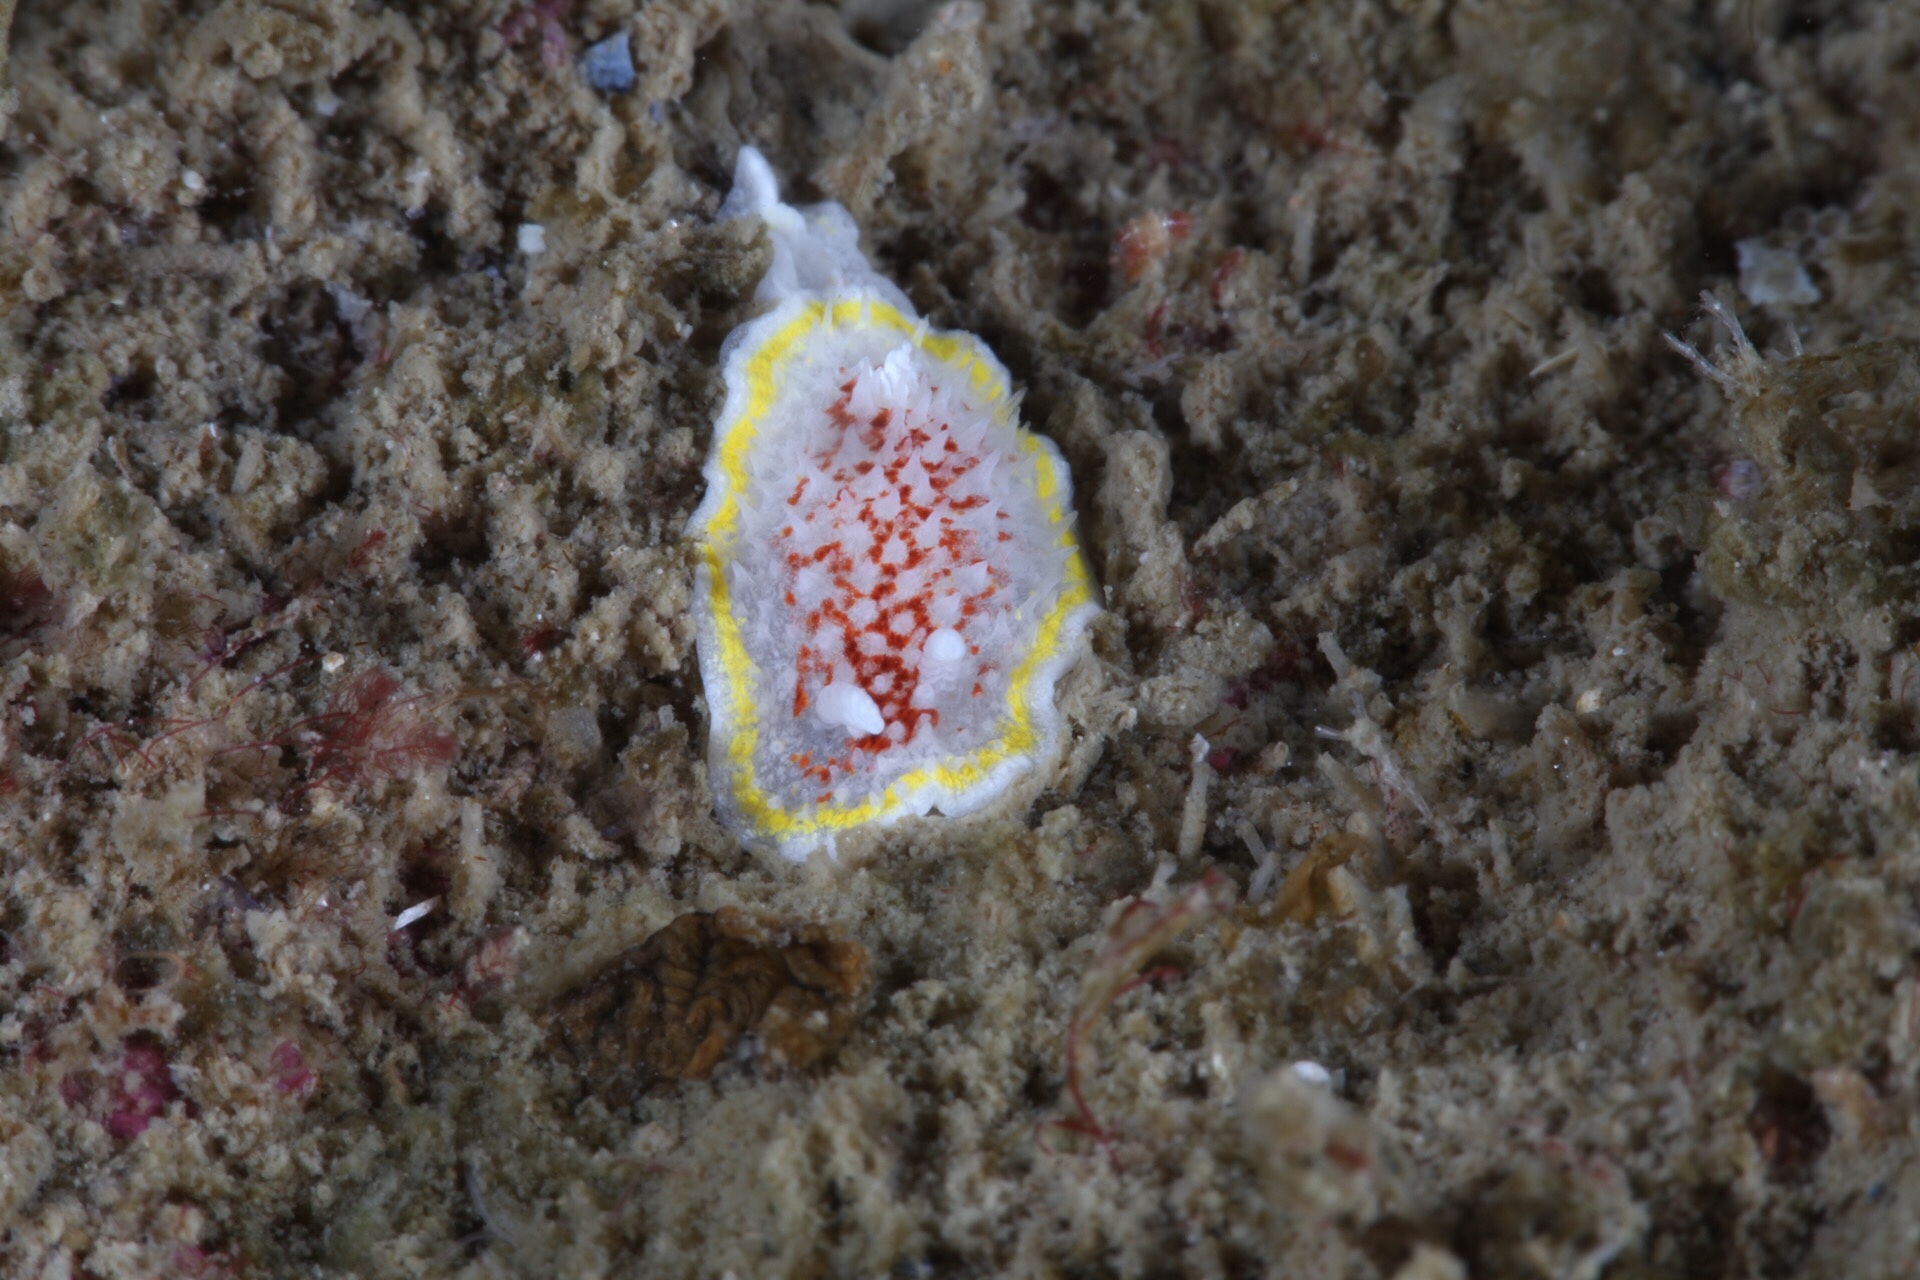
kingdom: Animalia
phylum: Mollusca
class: Gastropoda
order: Nudibranchia
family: Calycidorididae
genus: Diaphorodoris
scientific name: Diaphorodoris luteocincta
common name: Fried egg nudibranch
